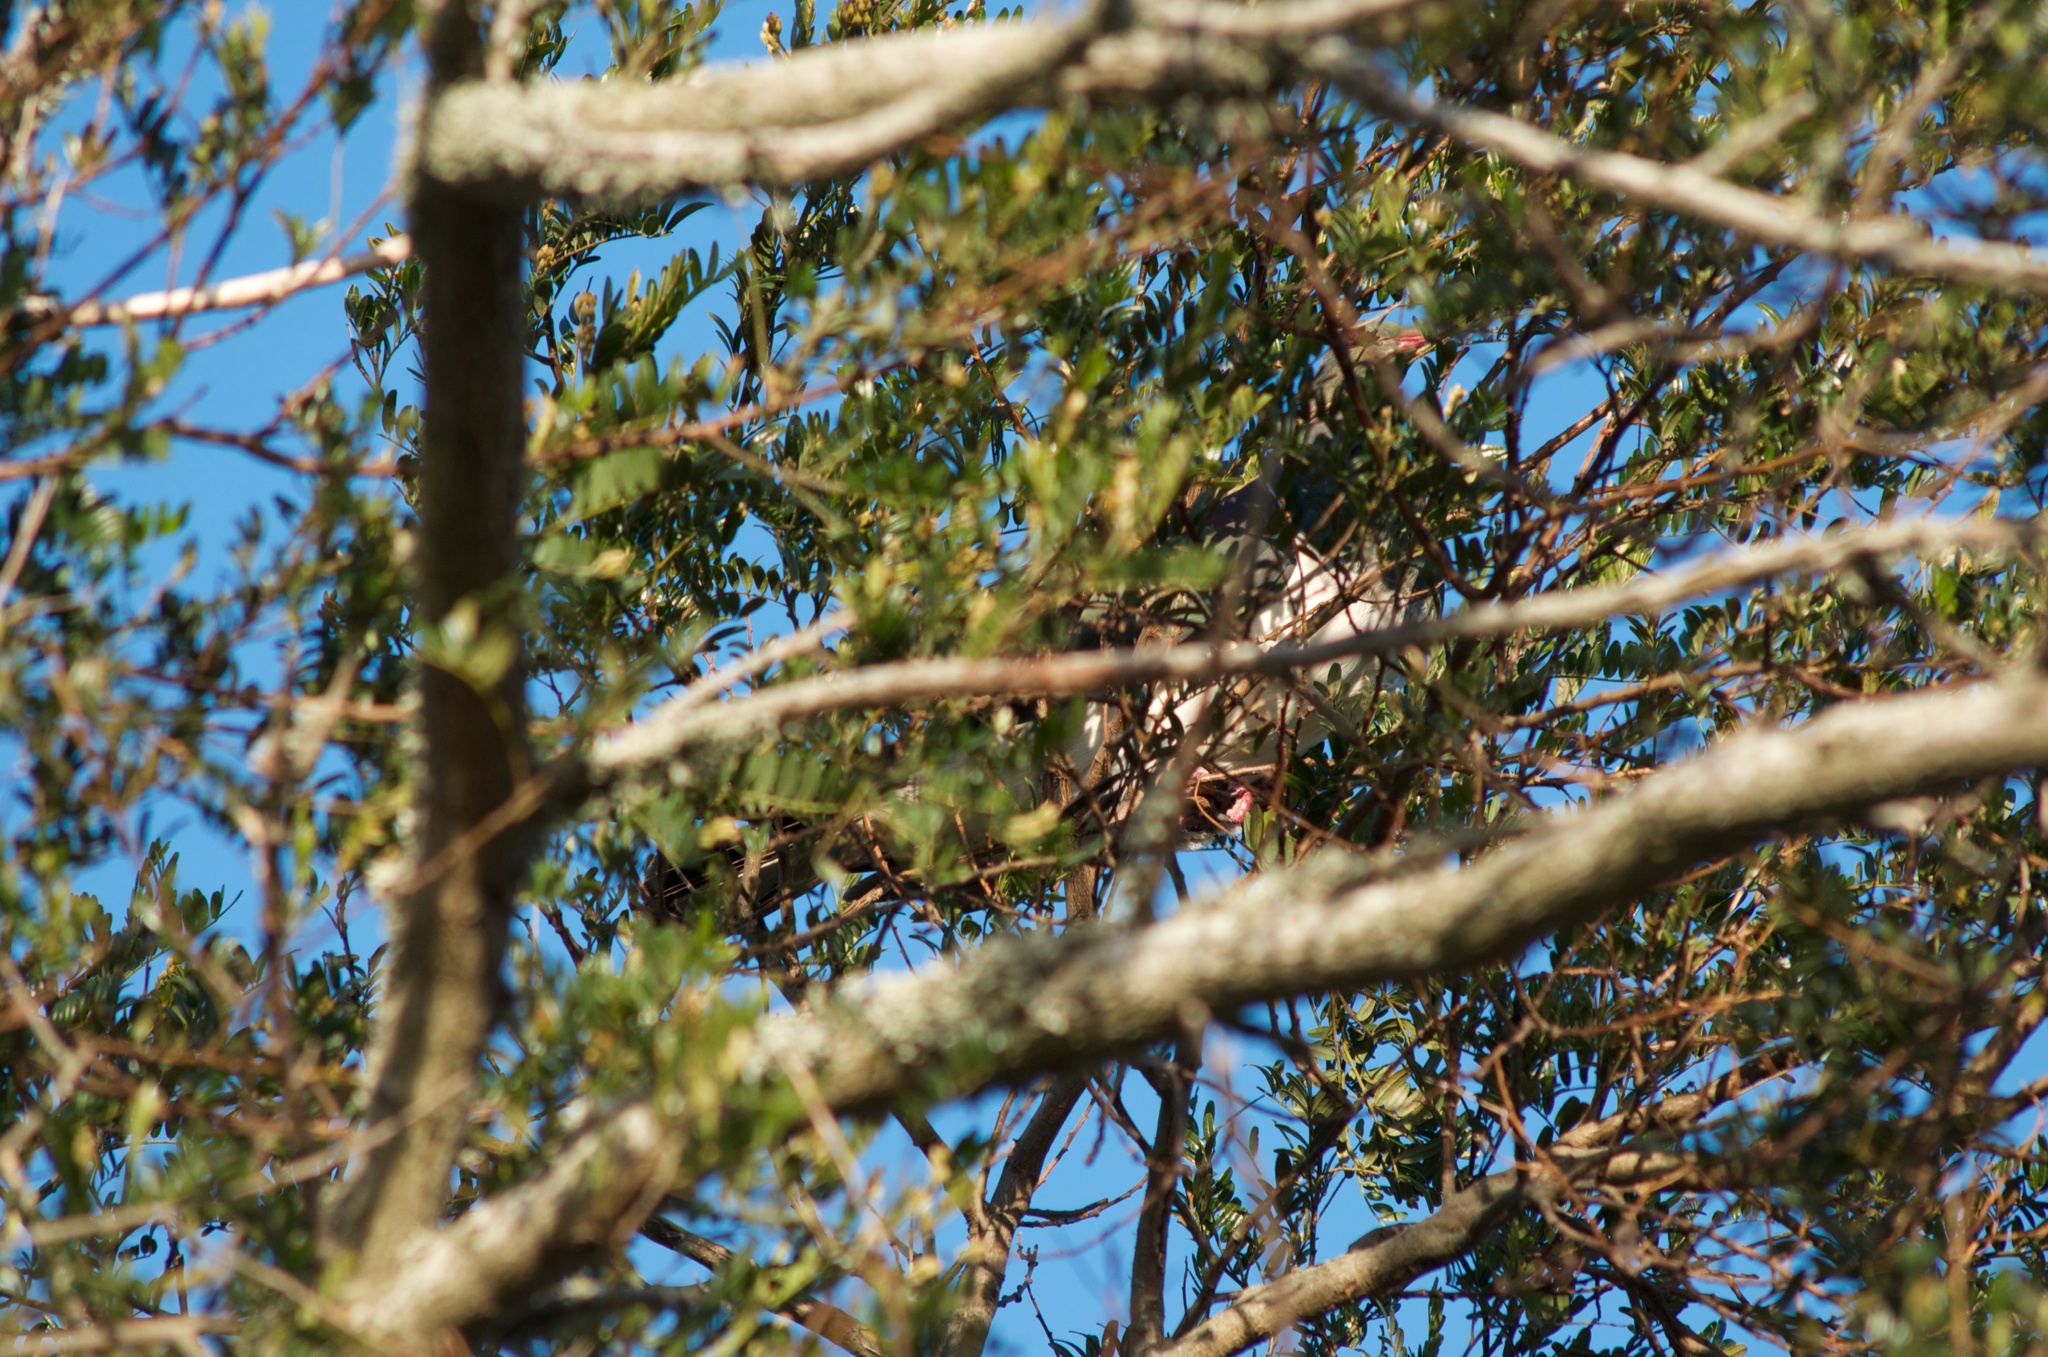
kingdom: Animalia
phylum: Chordata
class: Aves
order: Columbiformes
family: Columbidae
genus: Hemiphaga
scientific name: Hemiphaga novaeseelandiae
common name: New zealand pigeon
